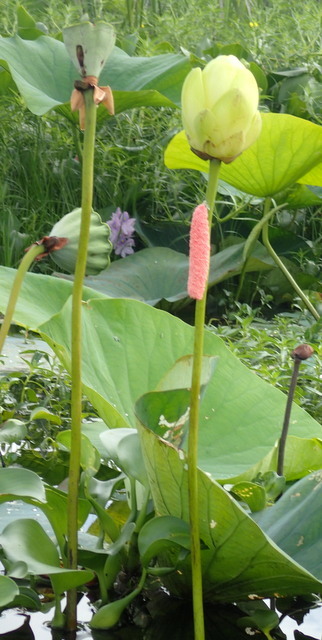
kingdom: Animalia
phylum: Mollusca
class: Gastropoda
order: Architaenioglossa
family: Ampullariidae
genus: Pomacea
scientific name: Pomacea maculata
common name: Giant applesnail
